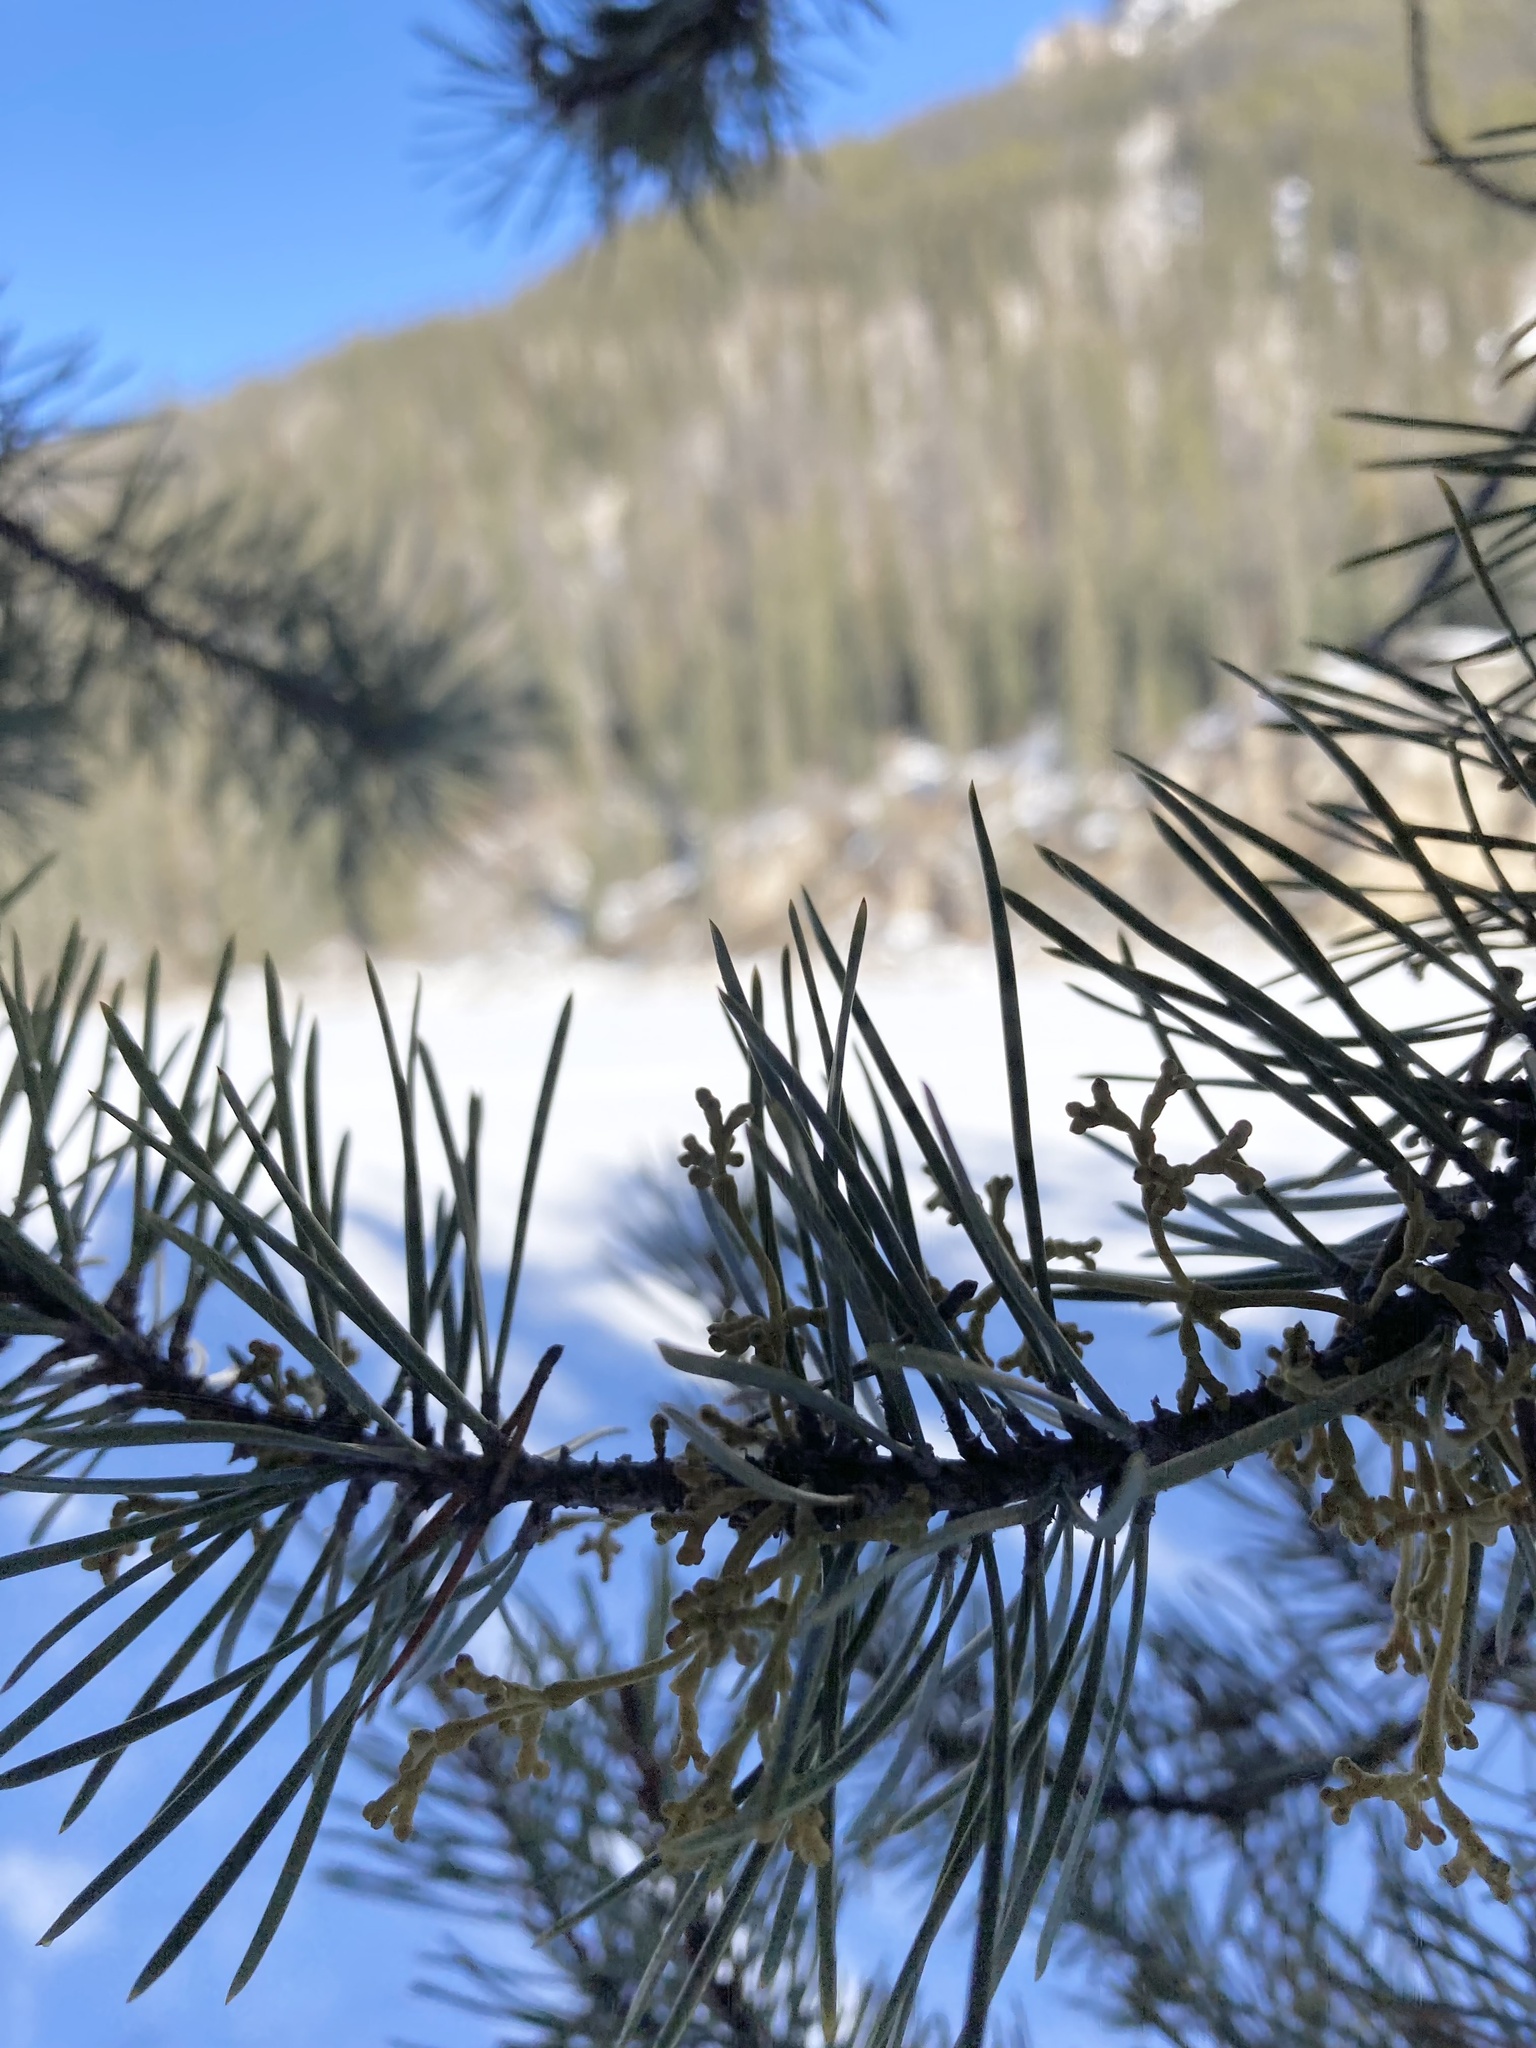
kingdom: Plantae
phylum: Tracheophyta
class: Magnoliopsida
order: Santalales
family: Viscaceae
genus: Arceuthobium
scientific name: Arceuthobium americanum
